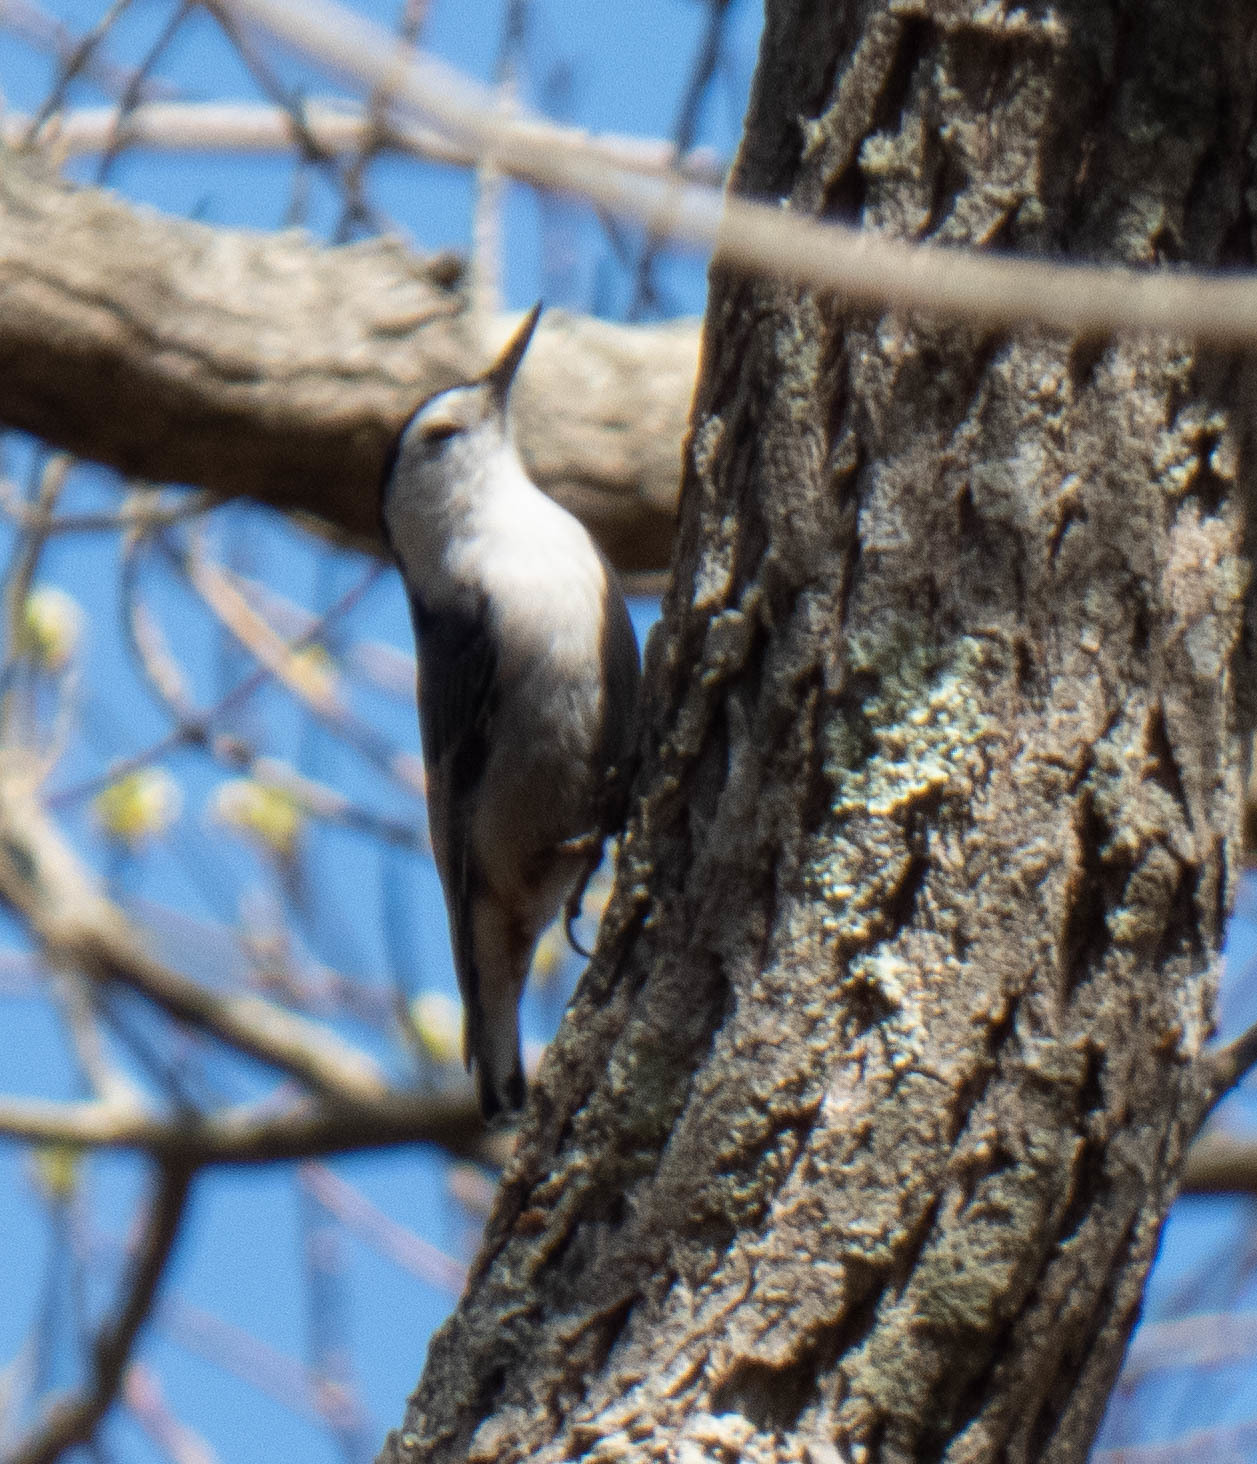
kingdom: Animalia
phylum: Chordata
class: Aves
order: Passeriformes
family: Sittidae
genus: Sitta
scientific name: Sitta carolinensis
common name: White-breasted nuthatch
